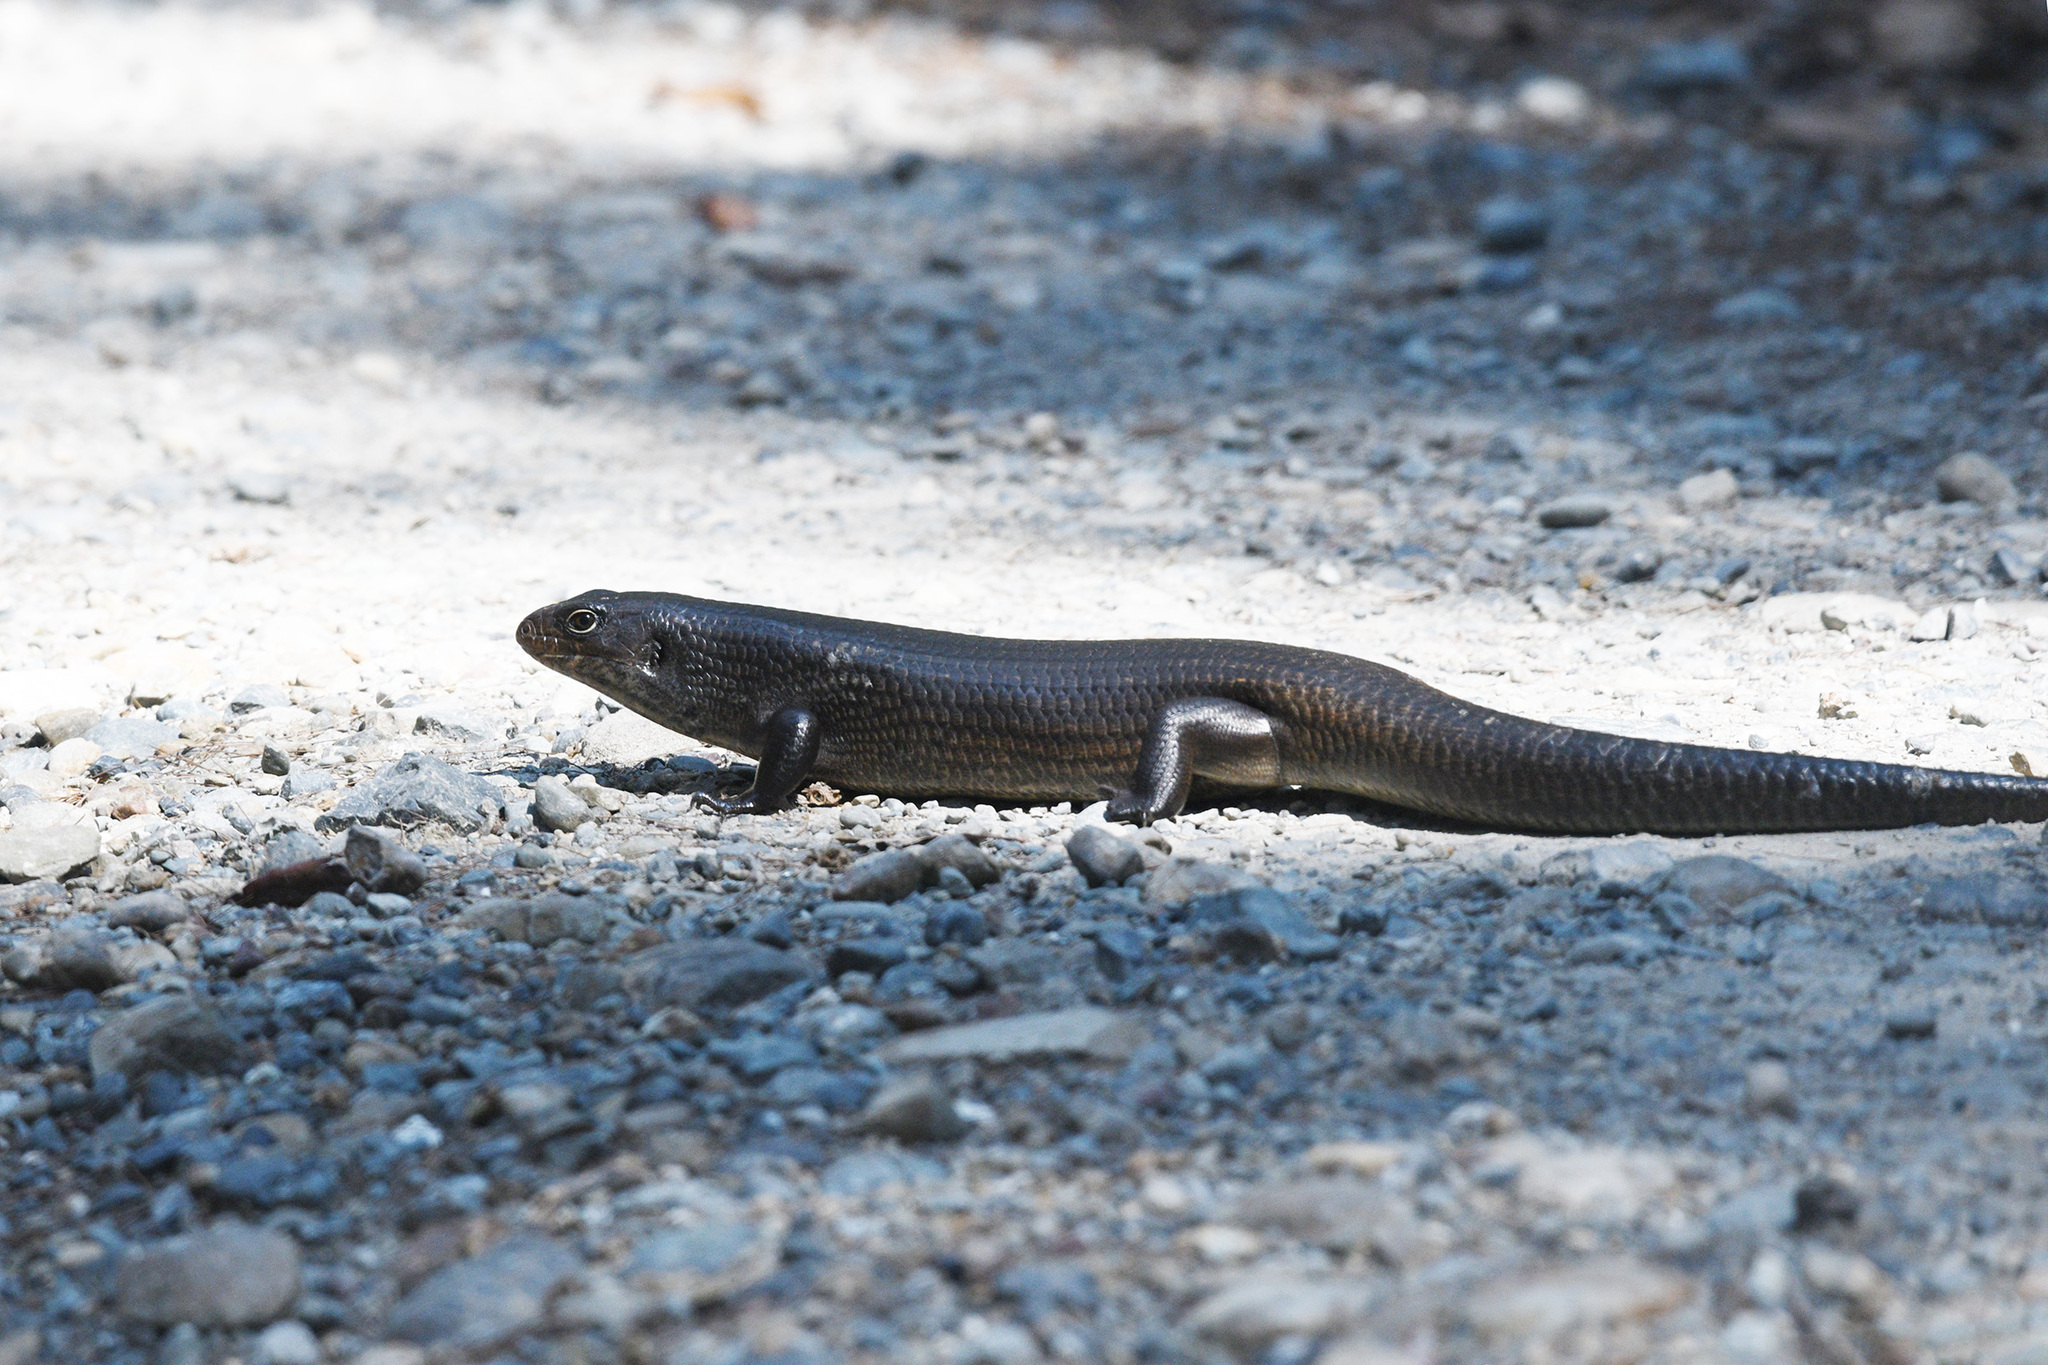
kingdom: Animalia
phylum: Chordata
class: Squamata
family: Scincidae
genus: Bellatorias
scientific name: Bellatorias major
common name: Land mullet
